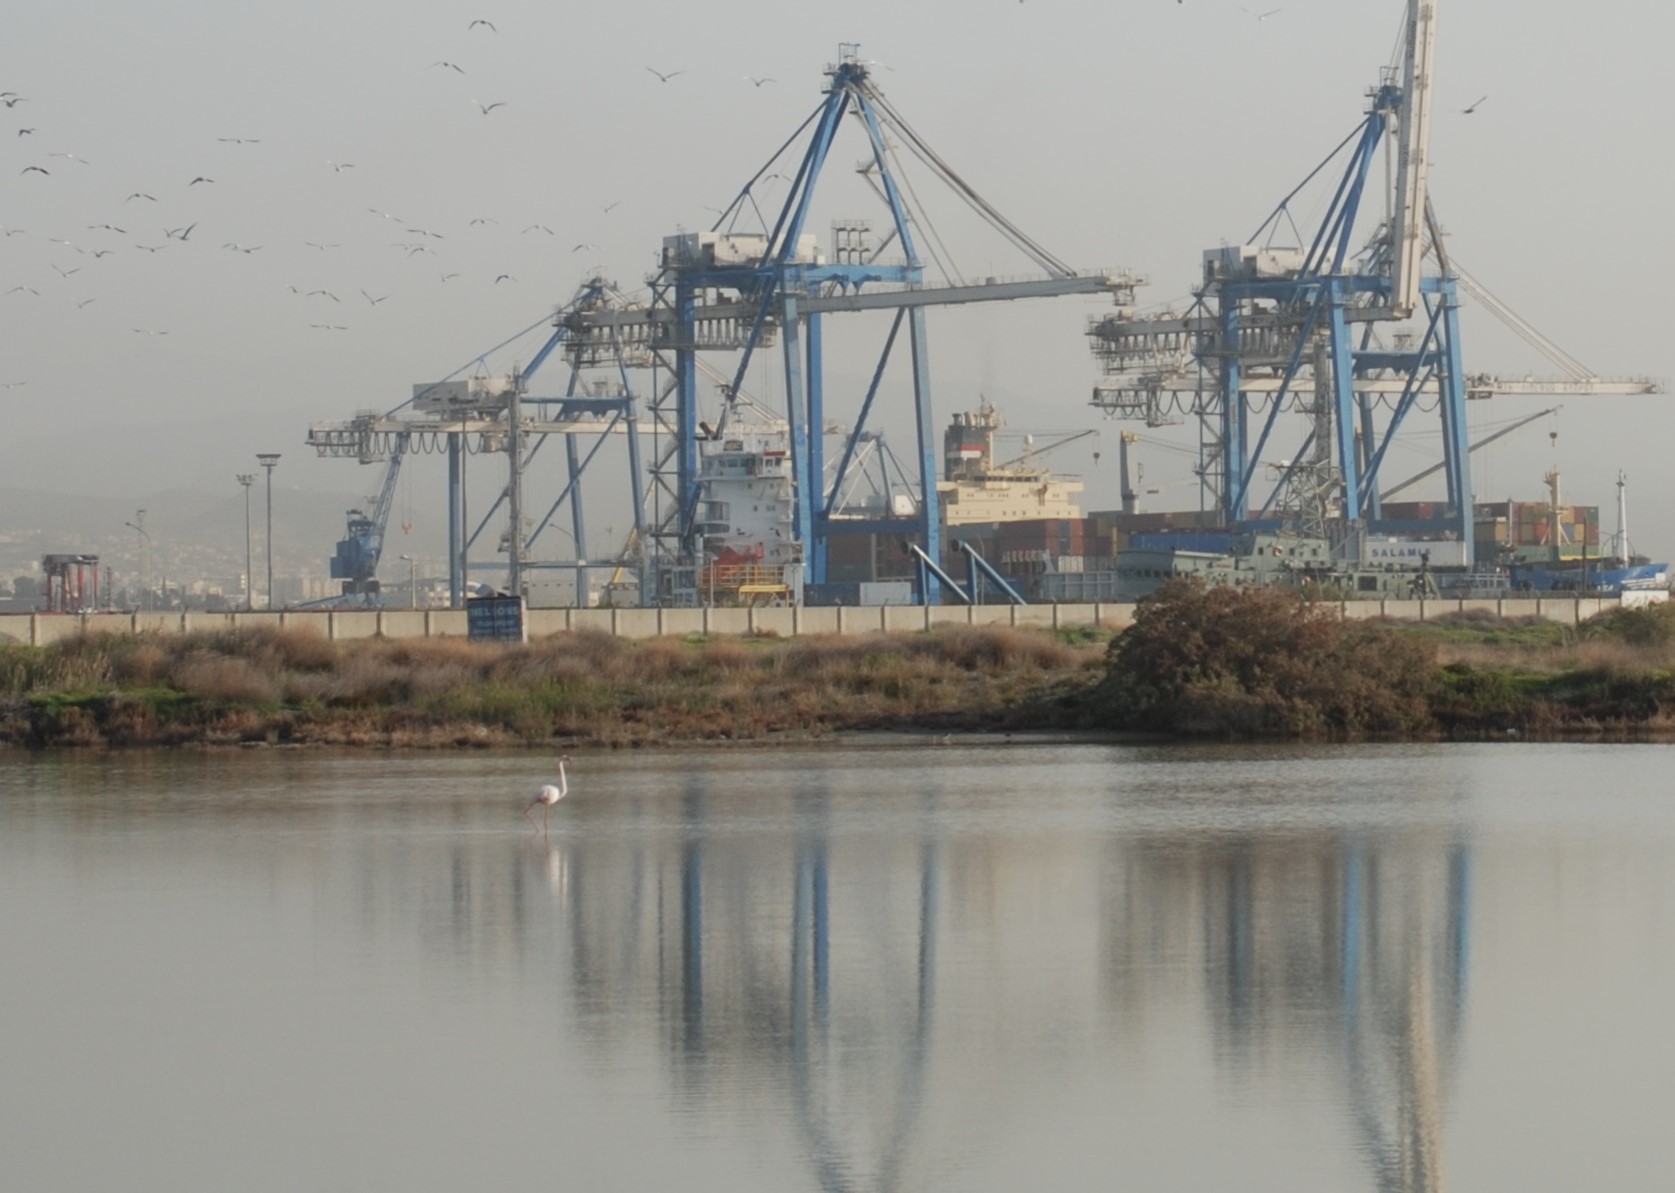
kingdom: Animalia
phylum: Chordata
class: Aves
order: Phoenicopteriformes
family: Phoenicopteridae
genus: Phoenicopterus
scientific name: Phoenicopterus roseus
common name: Greater flamingo
